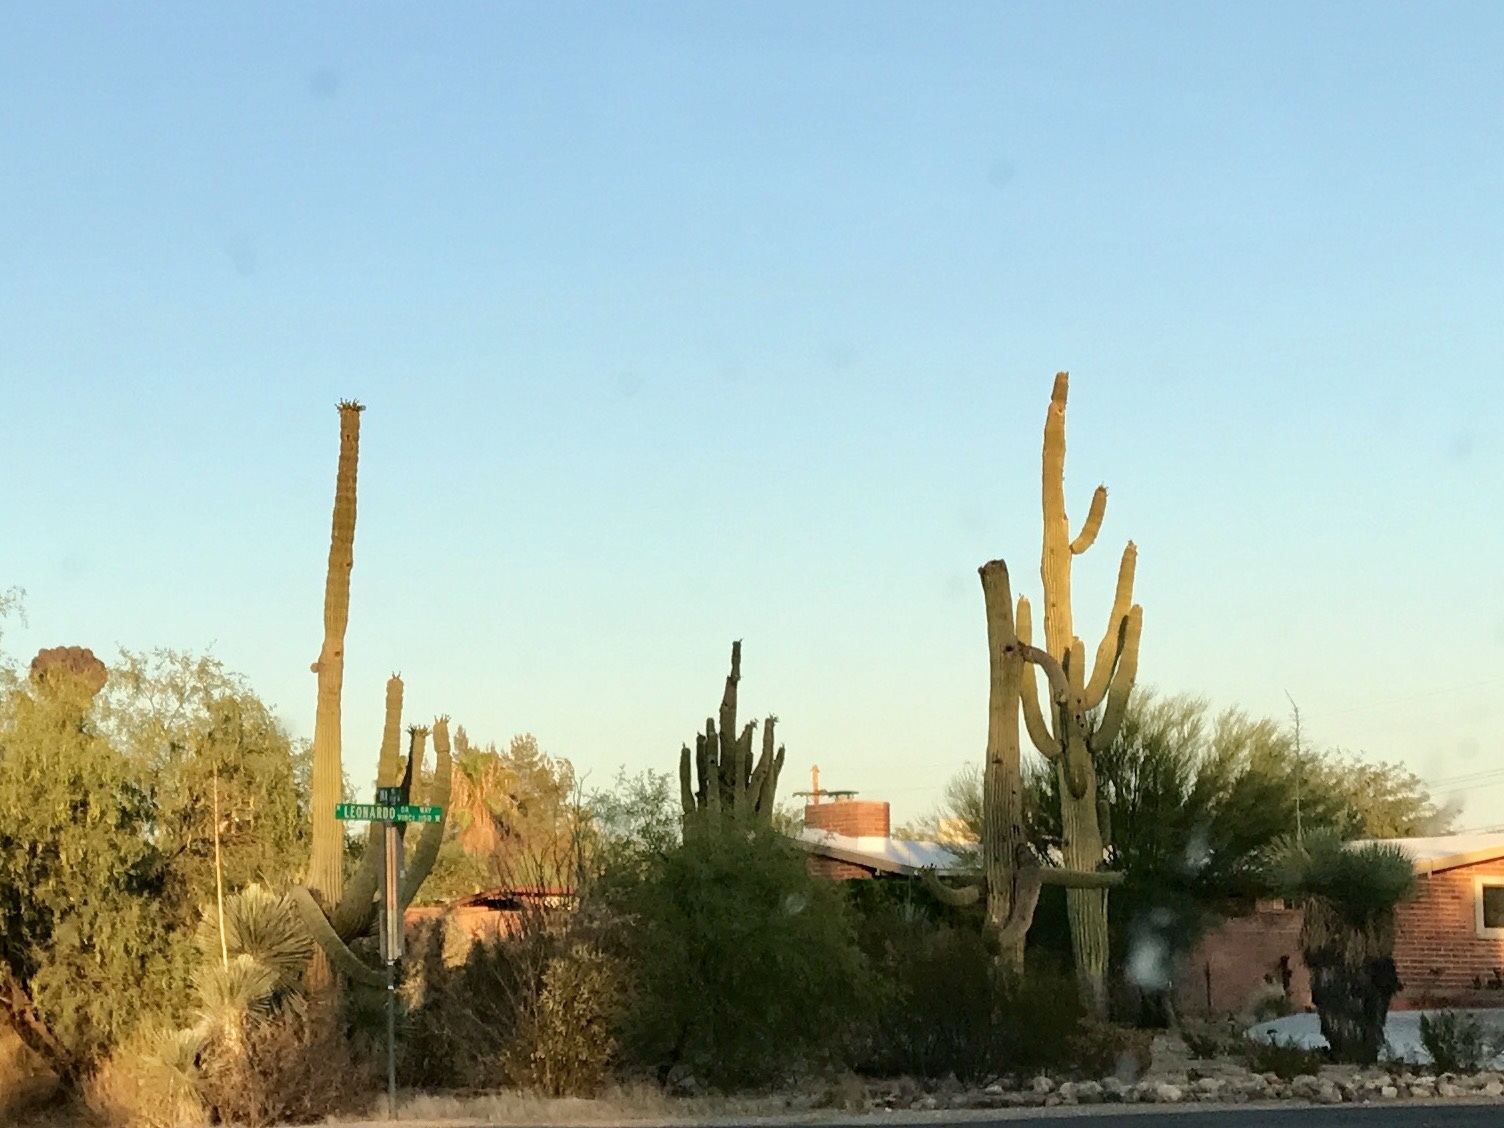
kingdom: Plantae
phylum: Tracheophyta
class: Magnoliopsida
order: Caryophyllales
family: Cactaceae
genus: Carnegiea
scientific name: Carnegiea gigantea
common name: Saguaro
